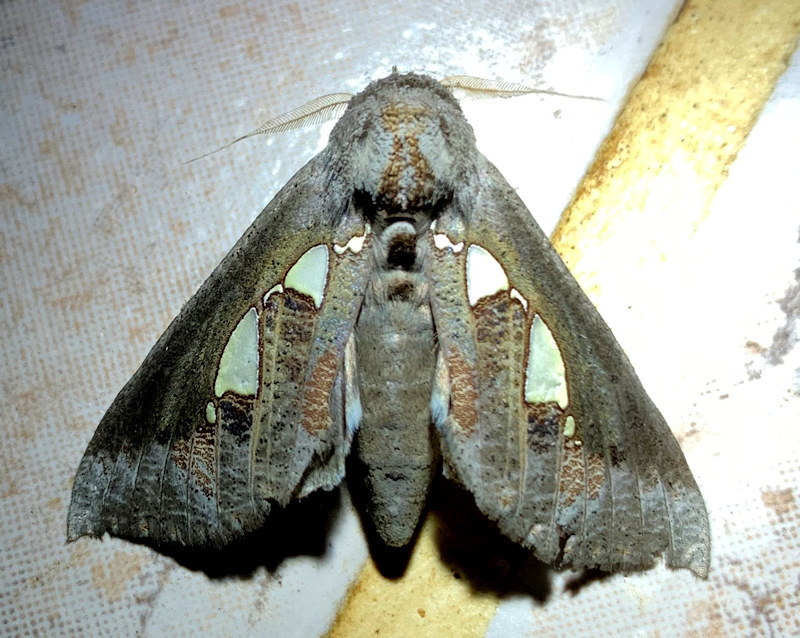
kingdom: Animalia
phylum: Arthropoda
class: Insecta
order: Lepidoptera
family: Erebidae
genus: Antiophlebia
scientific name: Antiophlebia bracteata
